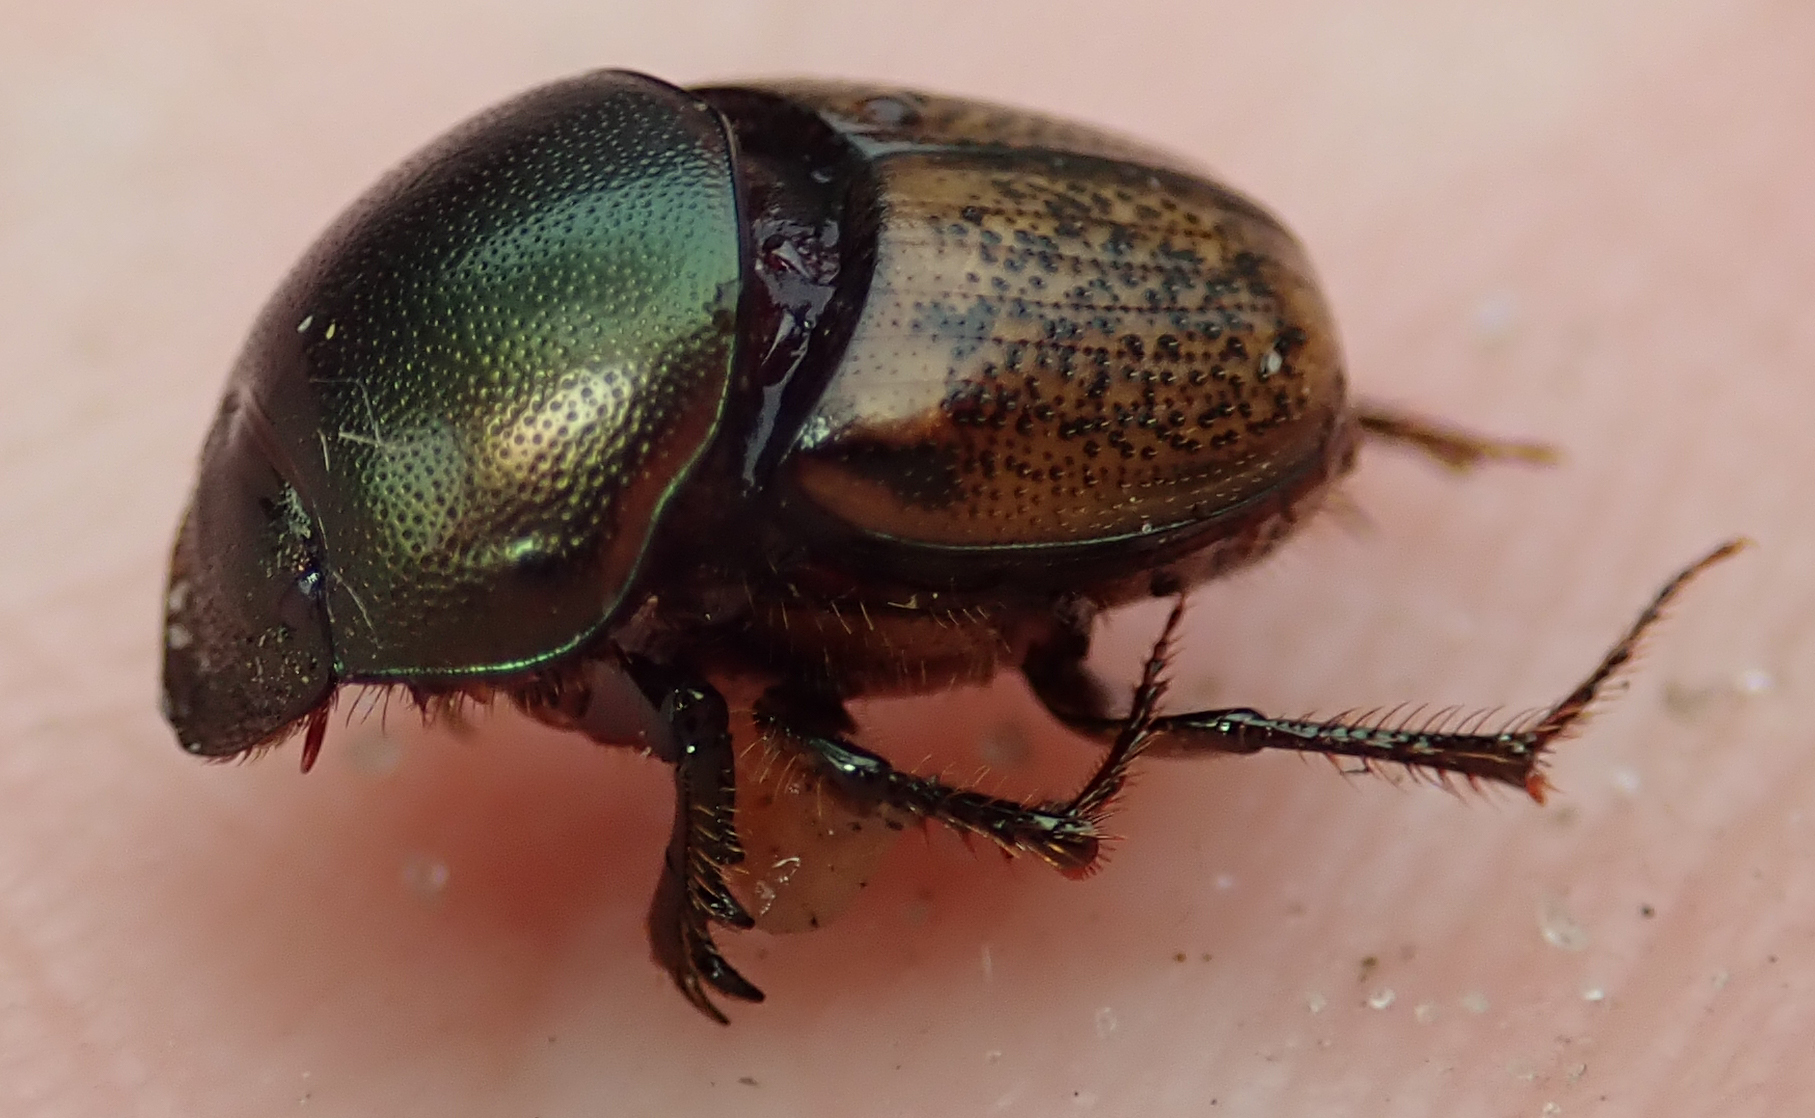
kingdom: Animalia
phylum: Arthropoda
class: Insecta
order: Coleoptera
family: Scarabaeidae
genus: Onthophagus
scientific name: Onthophagus plebejus
